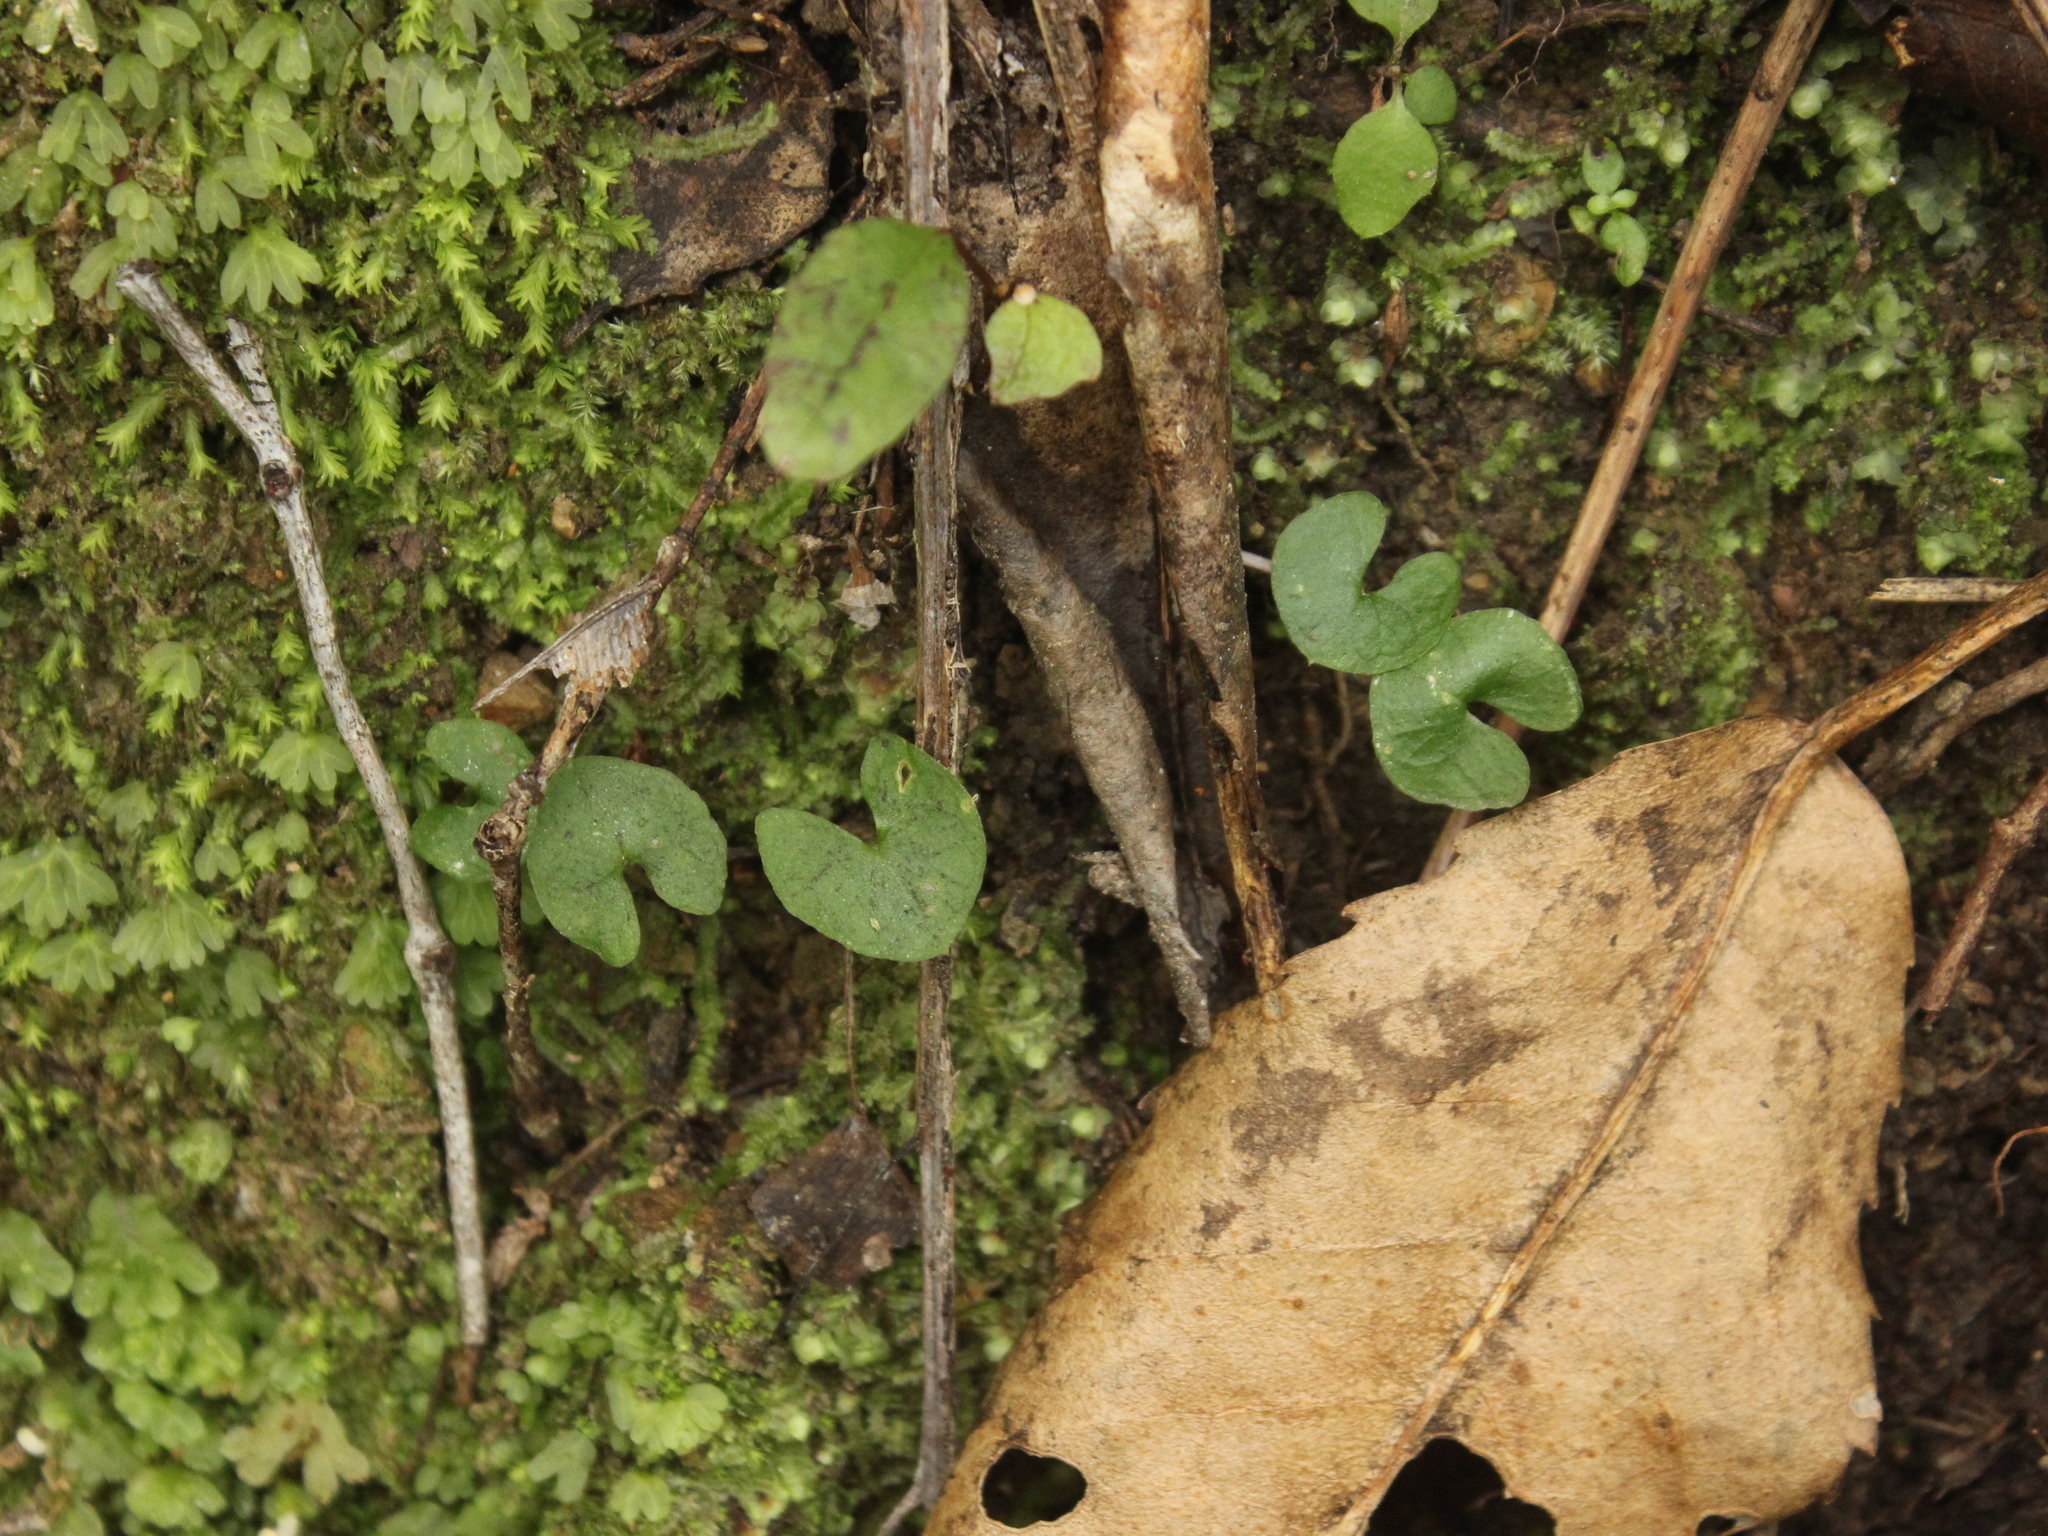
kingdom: Plantae
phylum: Tracheophyta
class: Liliopsida
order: Asparagales
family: Orchidaceae
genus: Acianthus
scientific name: Acianthus sinclairii
